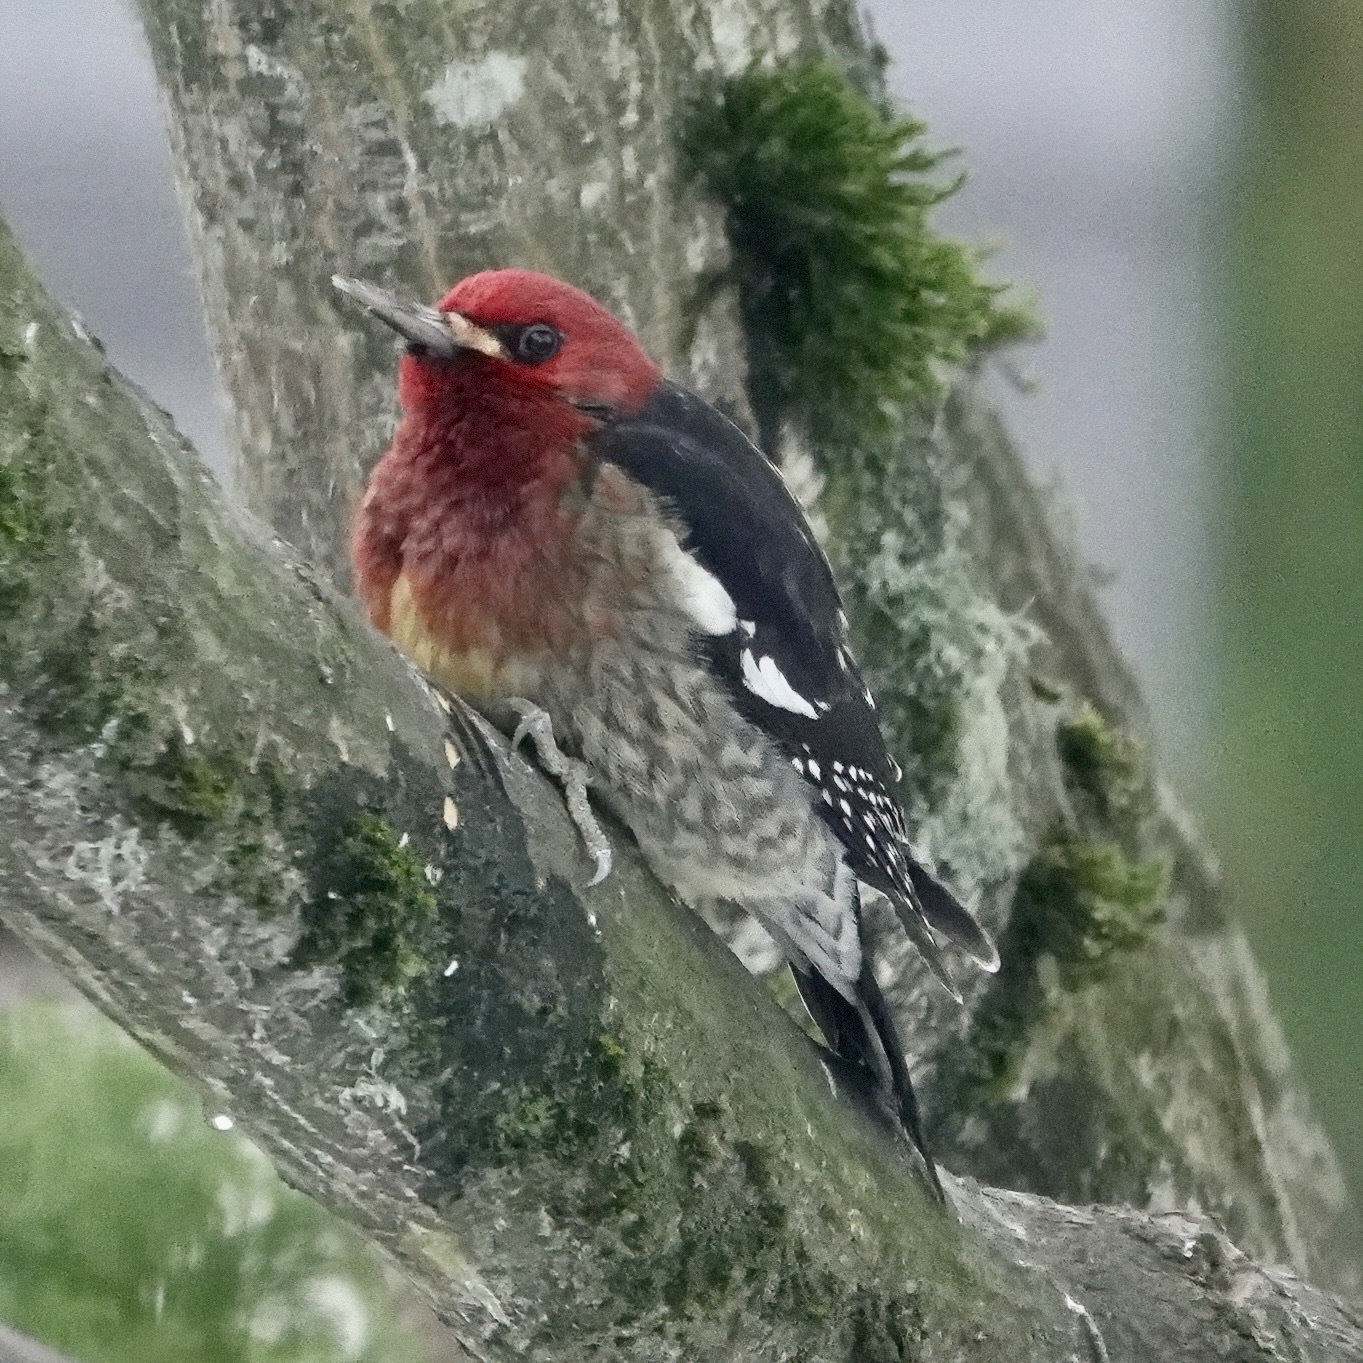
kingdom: Animalia
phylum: Chordata
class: Aves
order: Piciformes
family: Picidae
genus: Sphyrapicus
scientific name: Sphyrapicus ruber
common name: Red-breasted sapsucker
